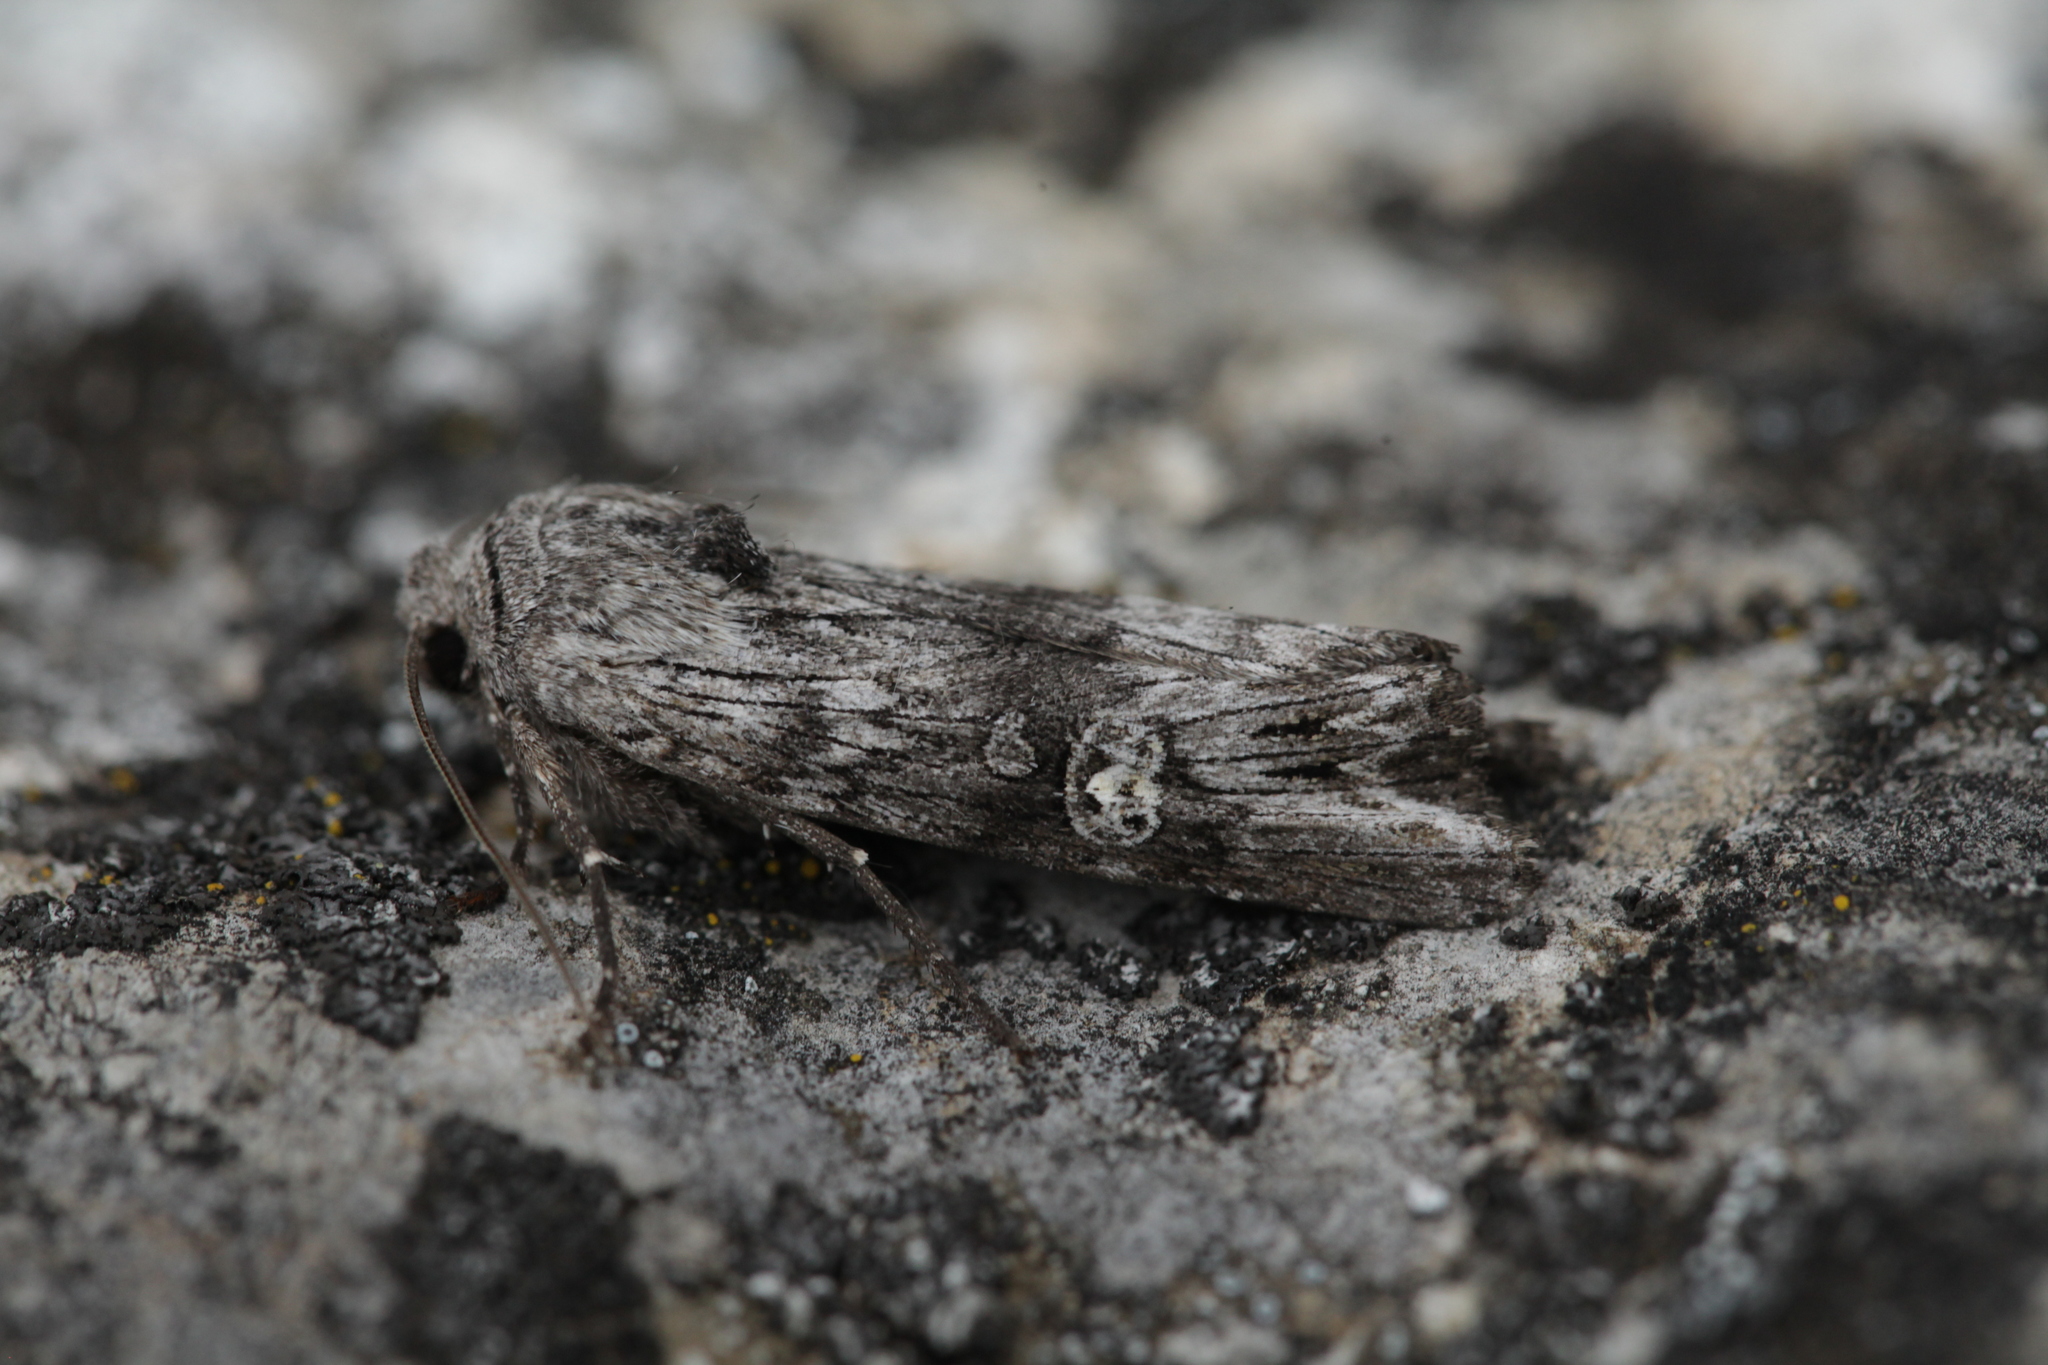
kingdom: Animalia
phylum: Arthropoda
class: Insecta
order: Lepidoptera
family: Noctuidae
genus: Xylena
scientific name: Xylena solidaginis
